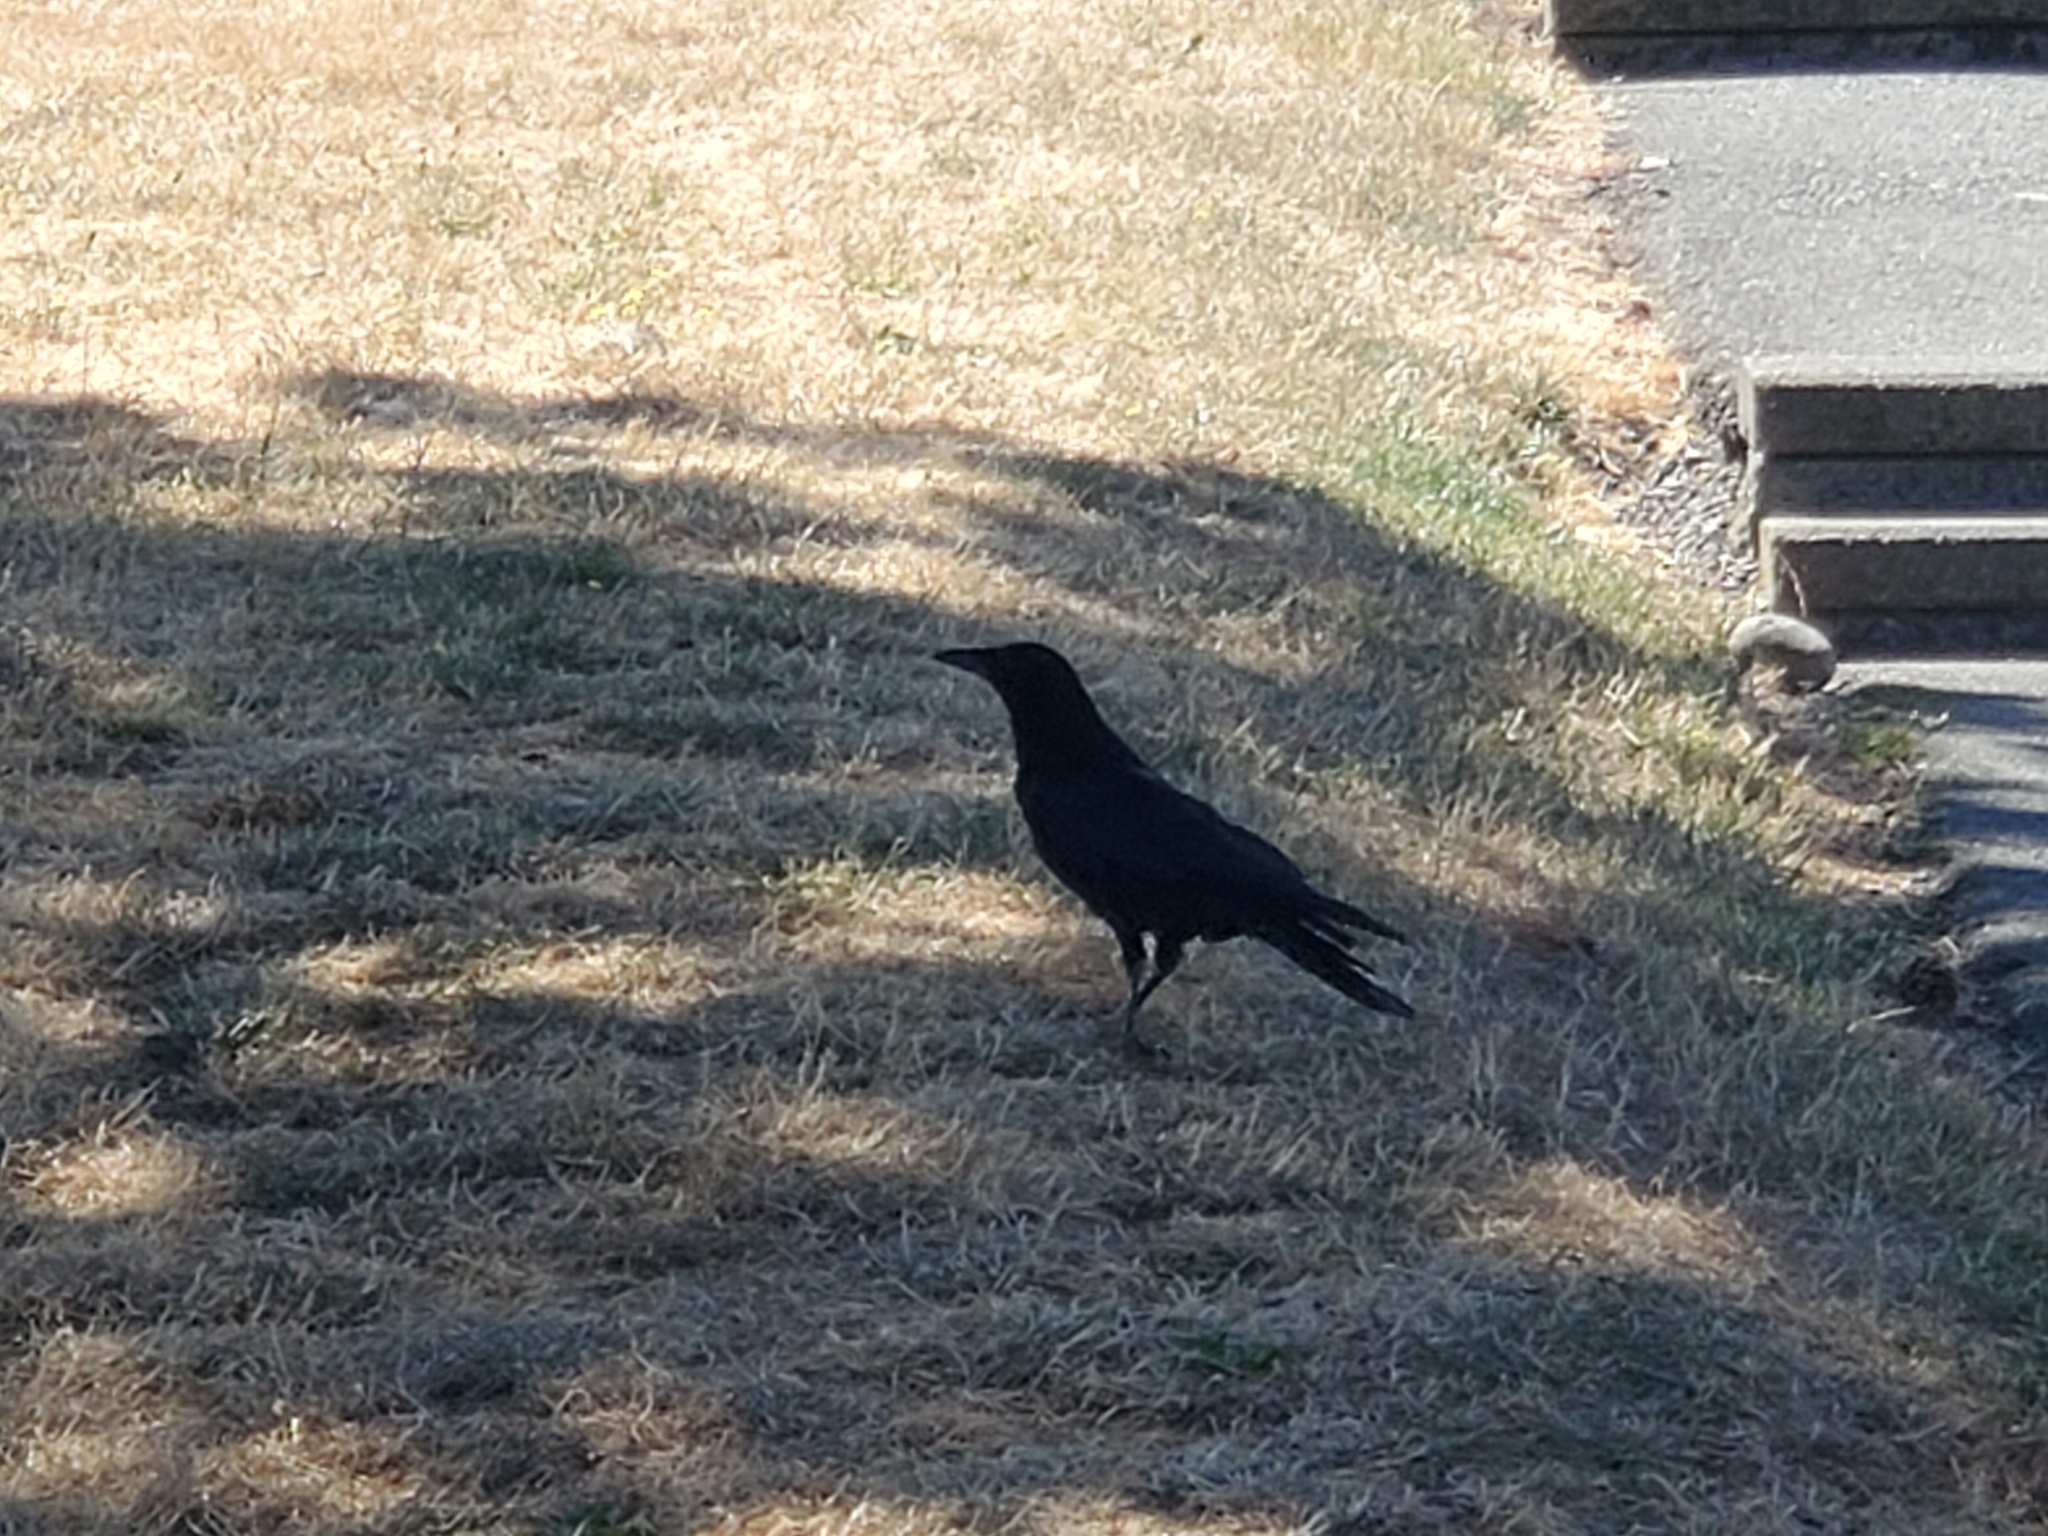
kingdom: Animalia
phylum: Chordata
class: Aves
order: Passeriformes
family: Corvidae
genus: Corvus
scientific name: Corvus brachyrhynchos
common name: American crow
